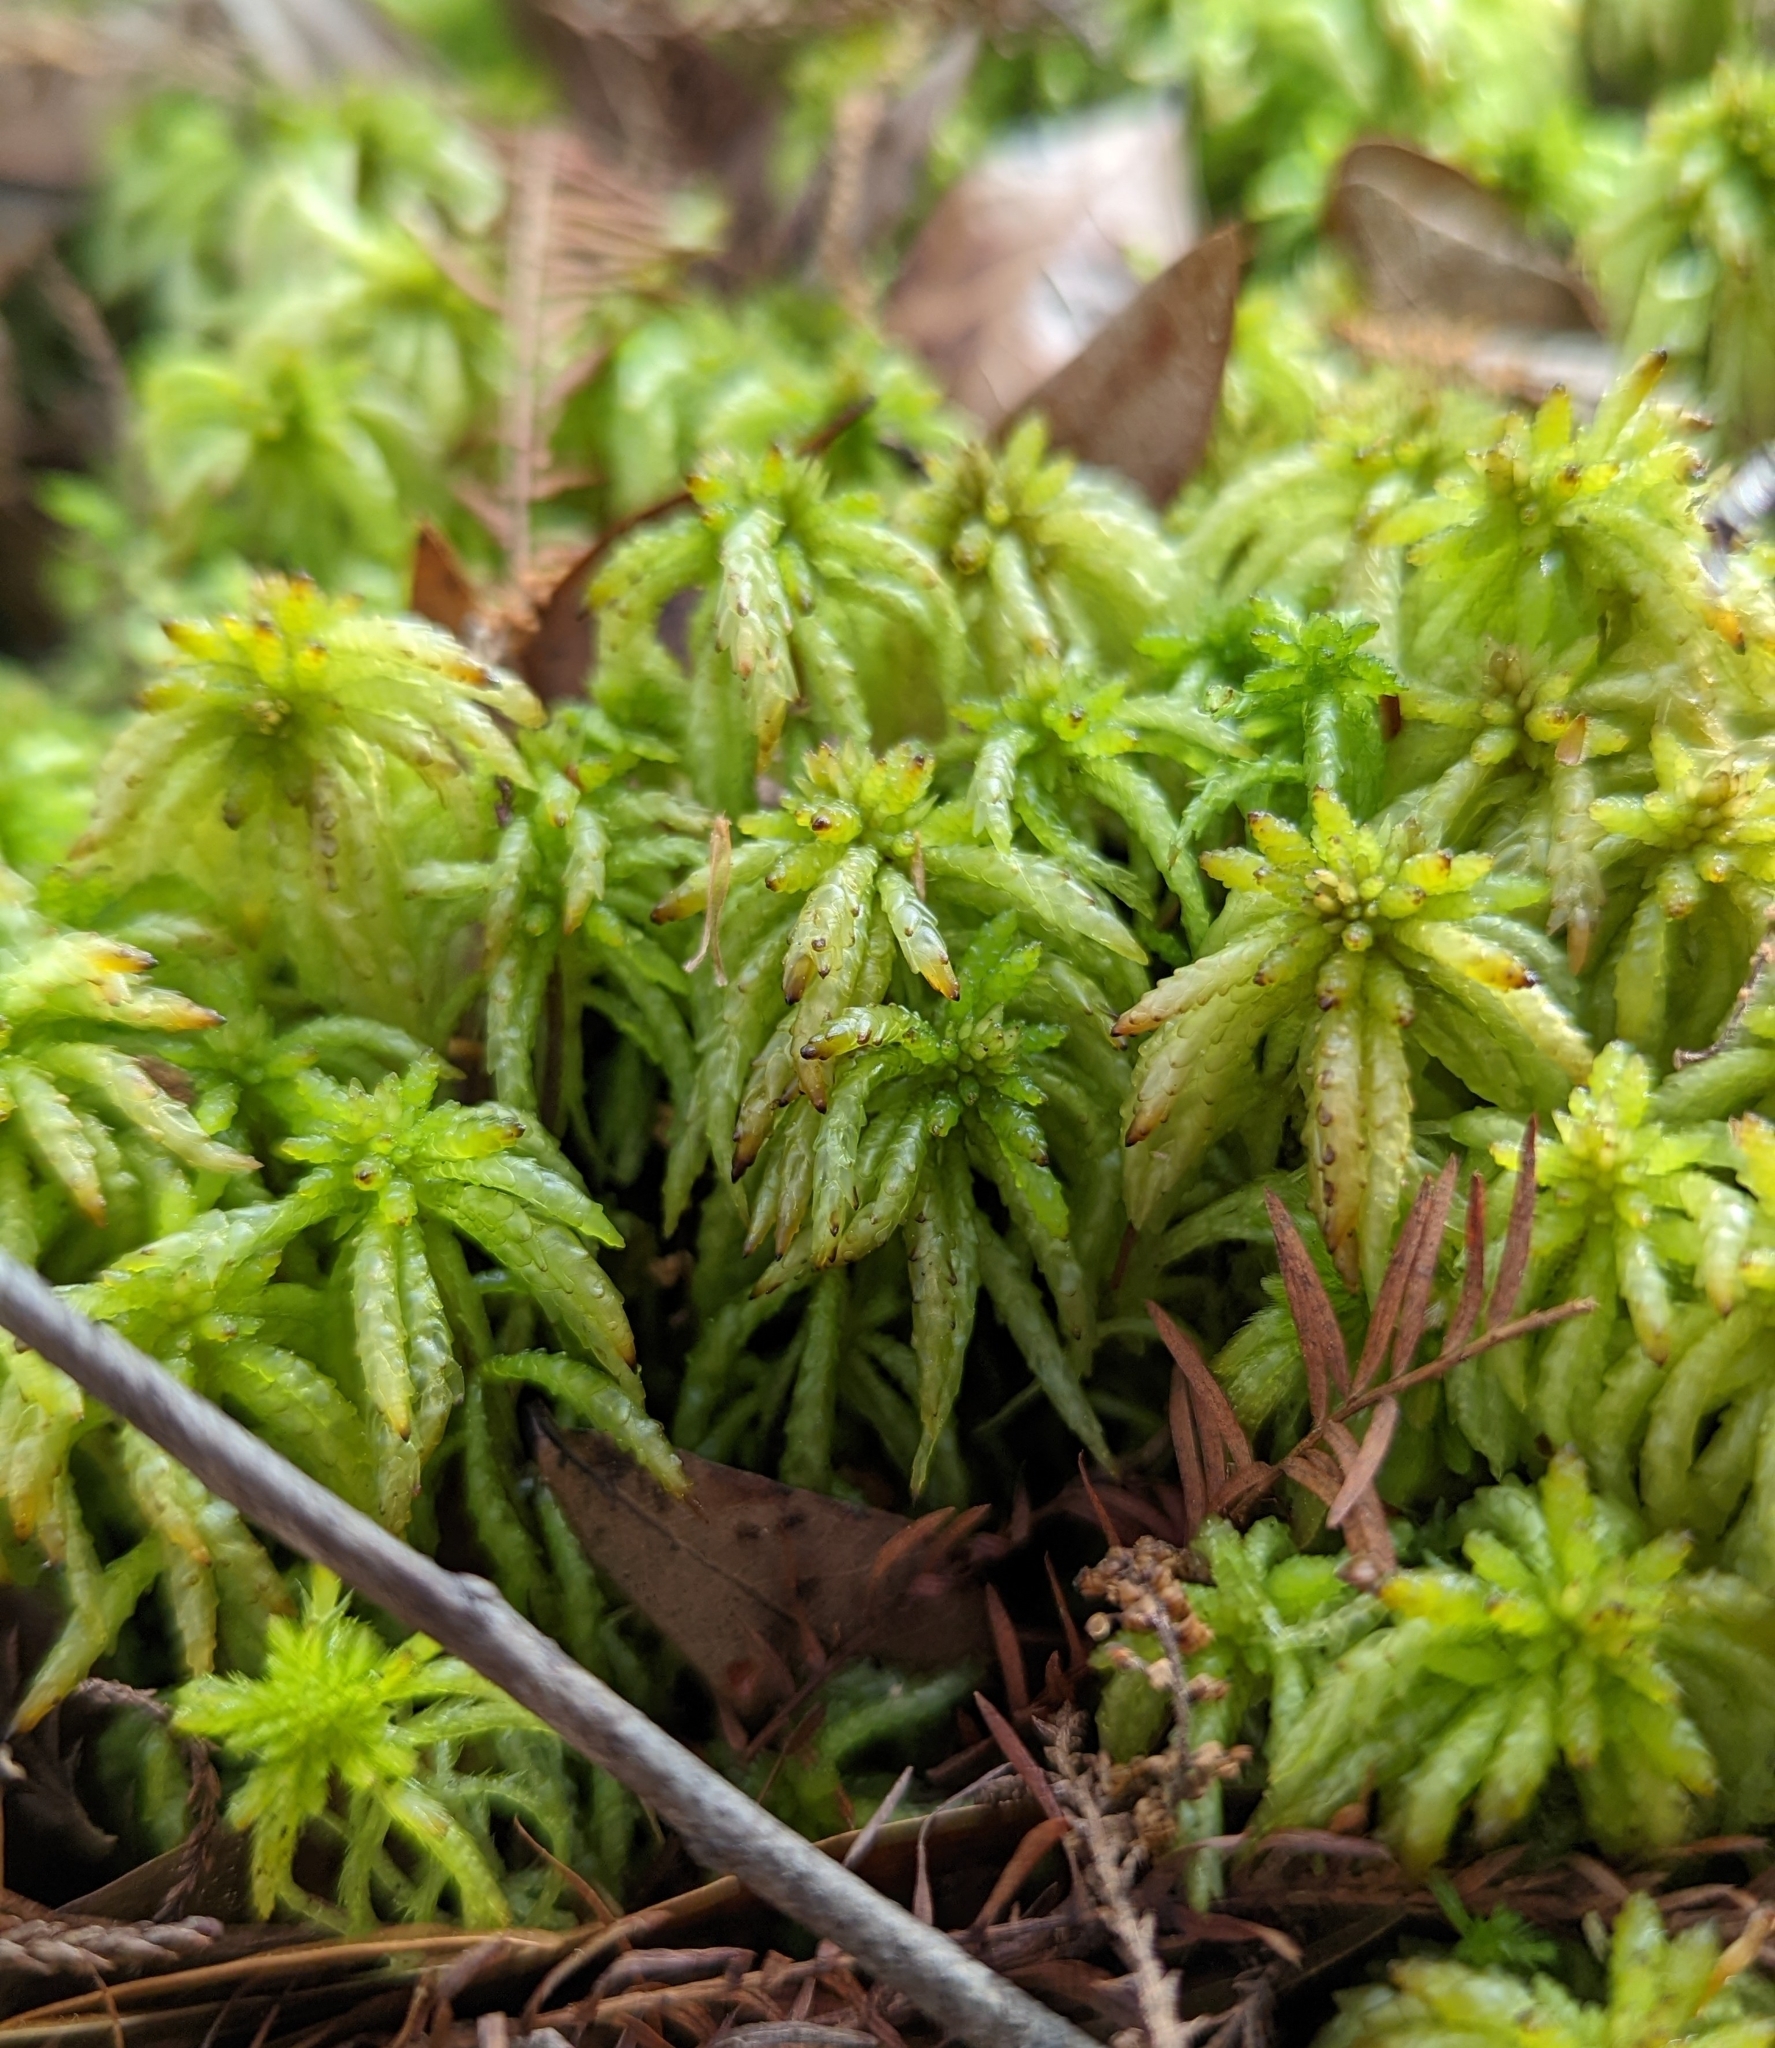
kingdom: Plantae
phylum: Bryophyta
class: Sphagnopsida
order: Sphagnales
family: Sphagnaceae
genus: Sphagnum
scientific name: Sphagnum portoricense
